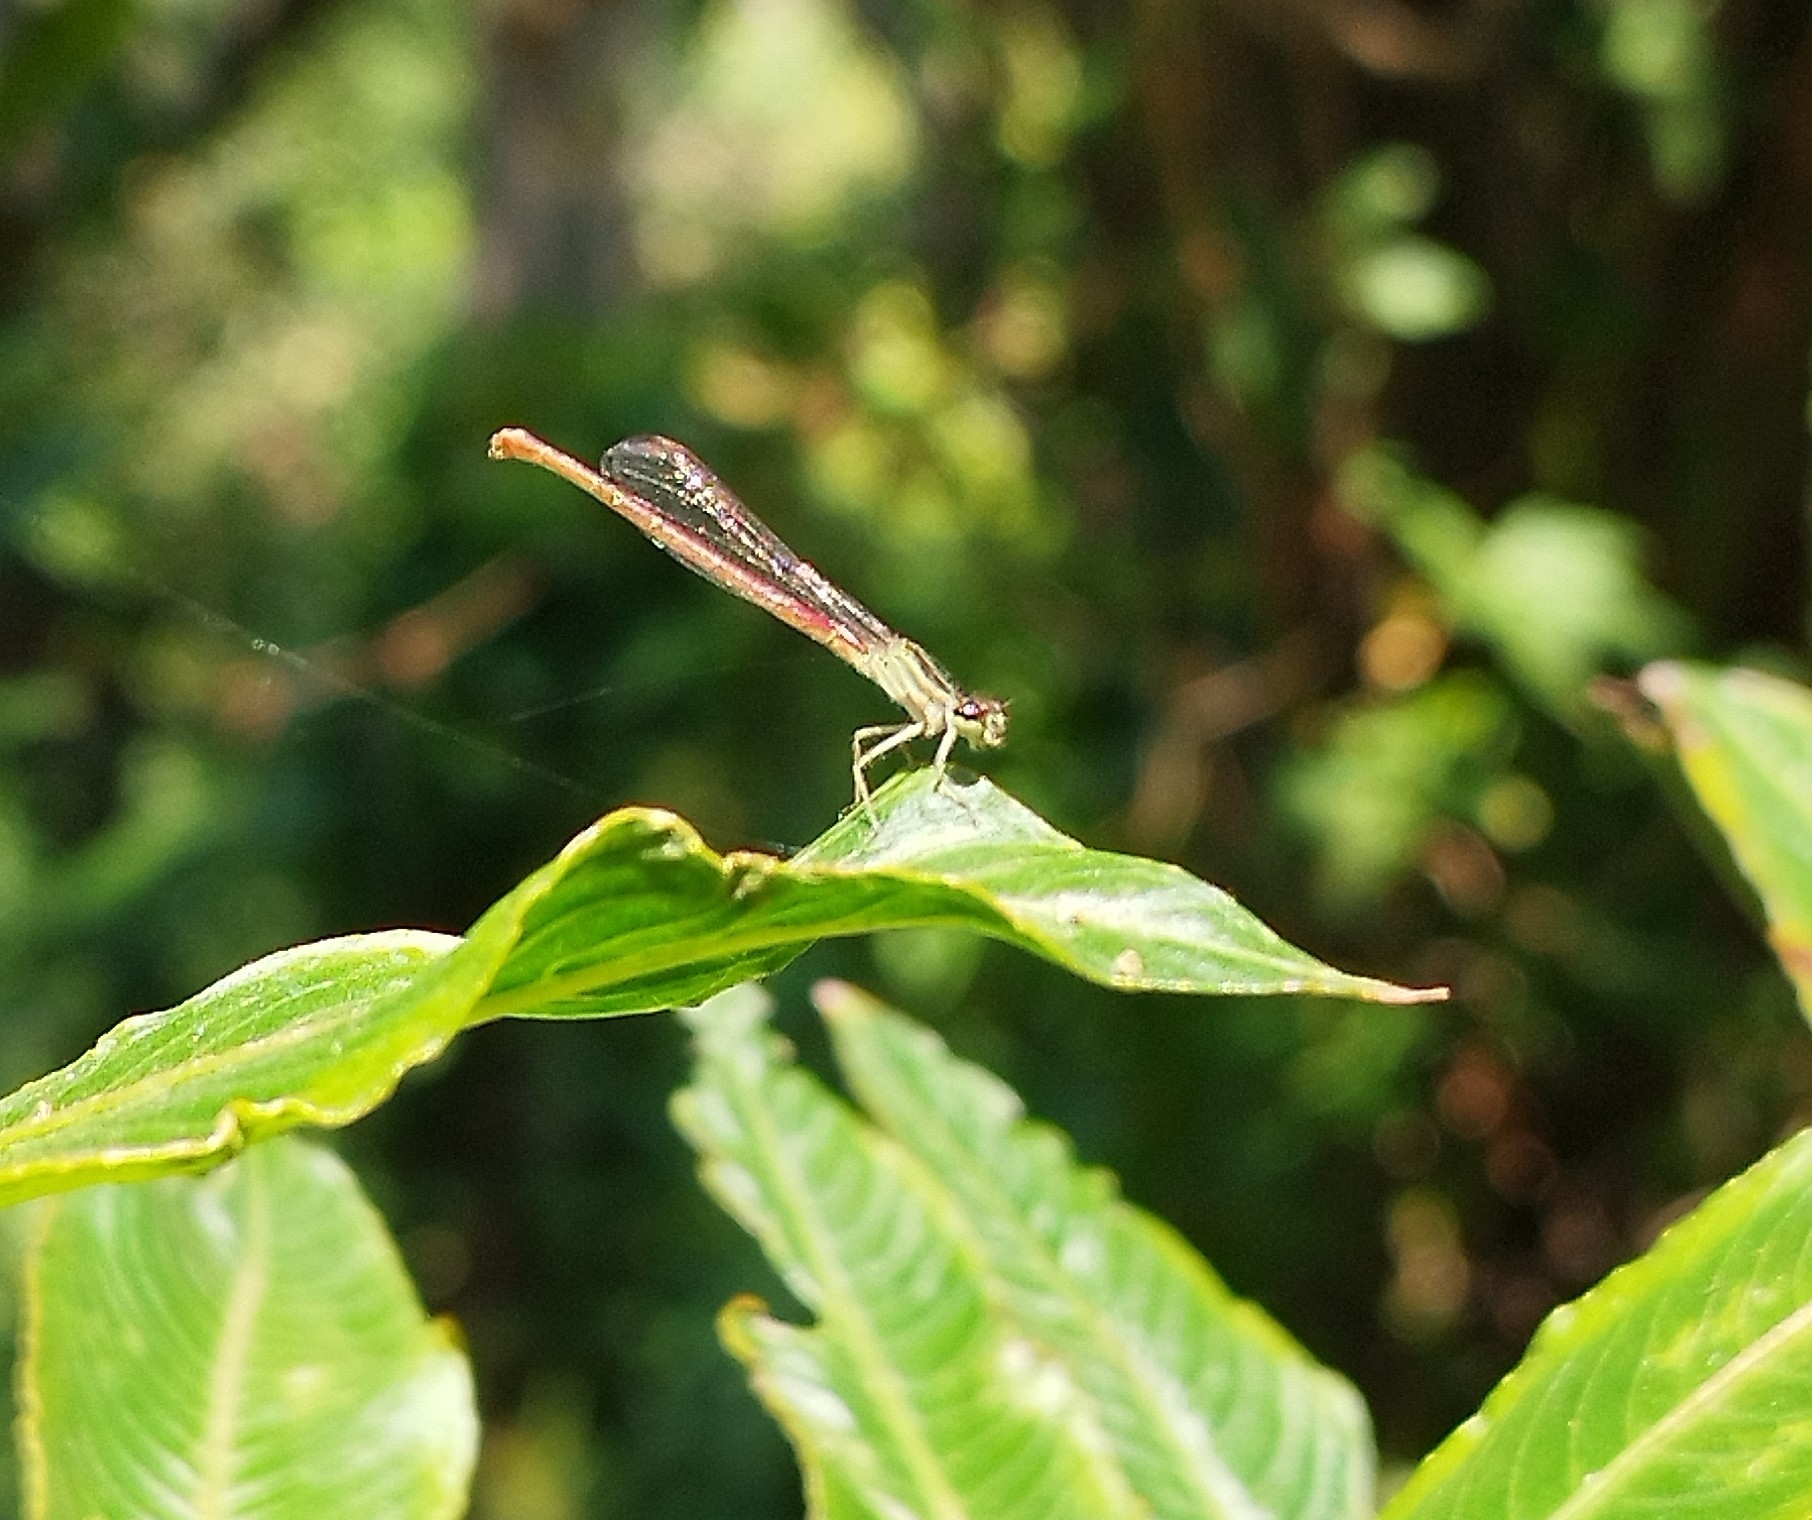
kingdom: Animalia
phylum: Arthropoda
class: Insecta
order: Odonata
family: Coenagrionidae
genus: Telebasis
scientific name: Telebasis willinki
